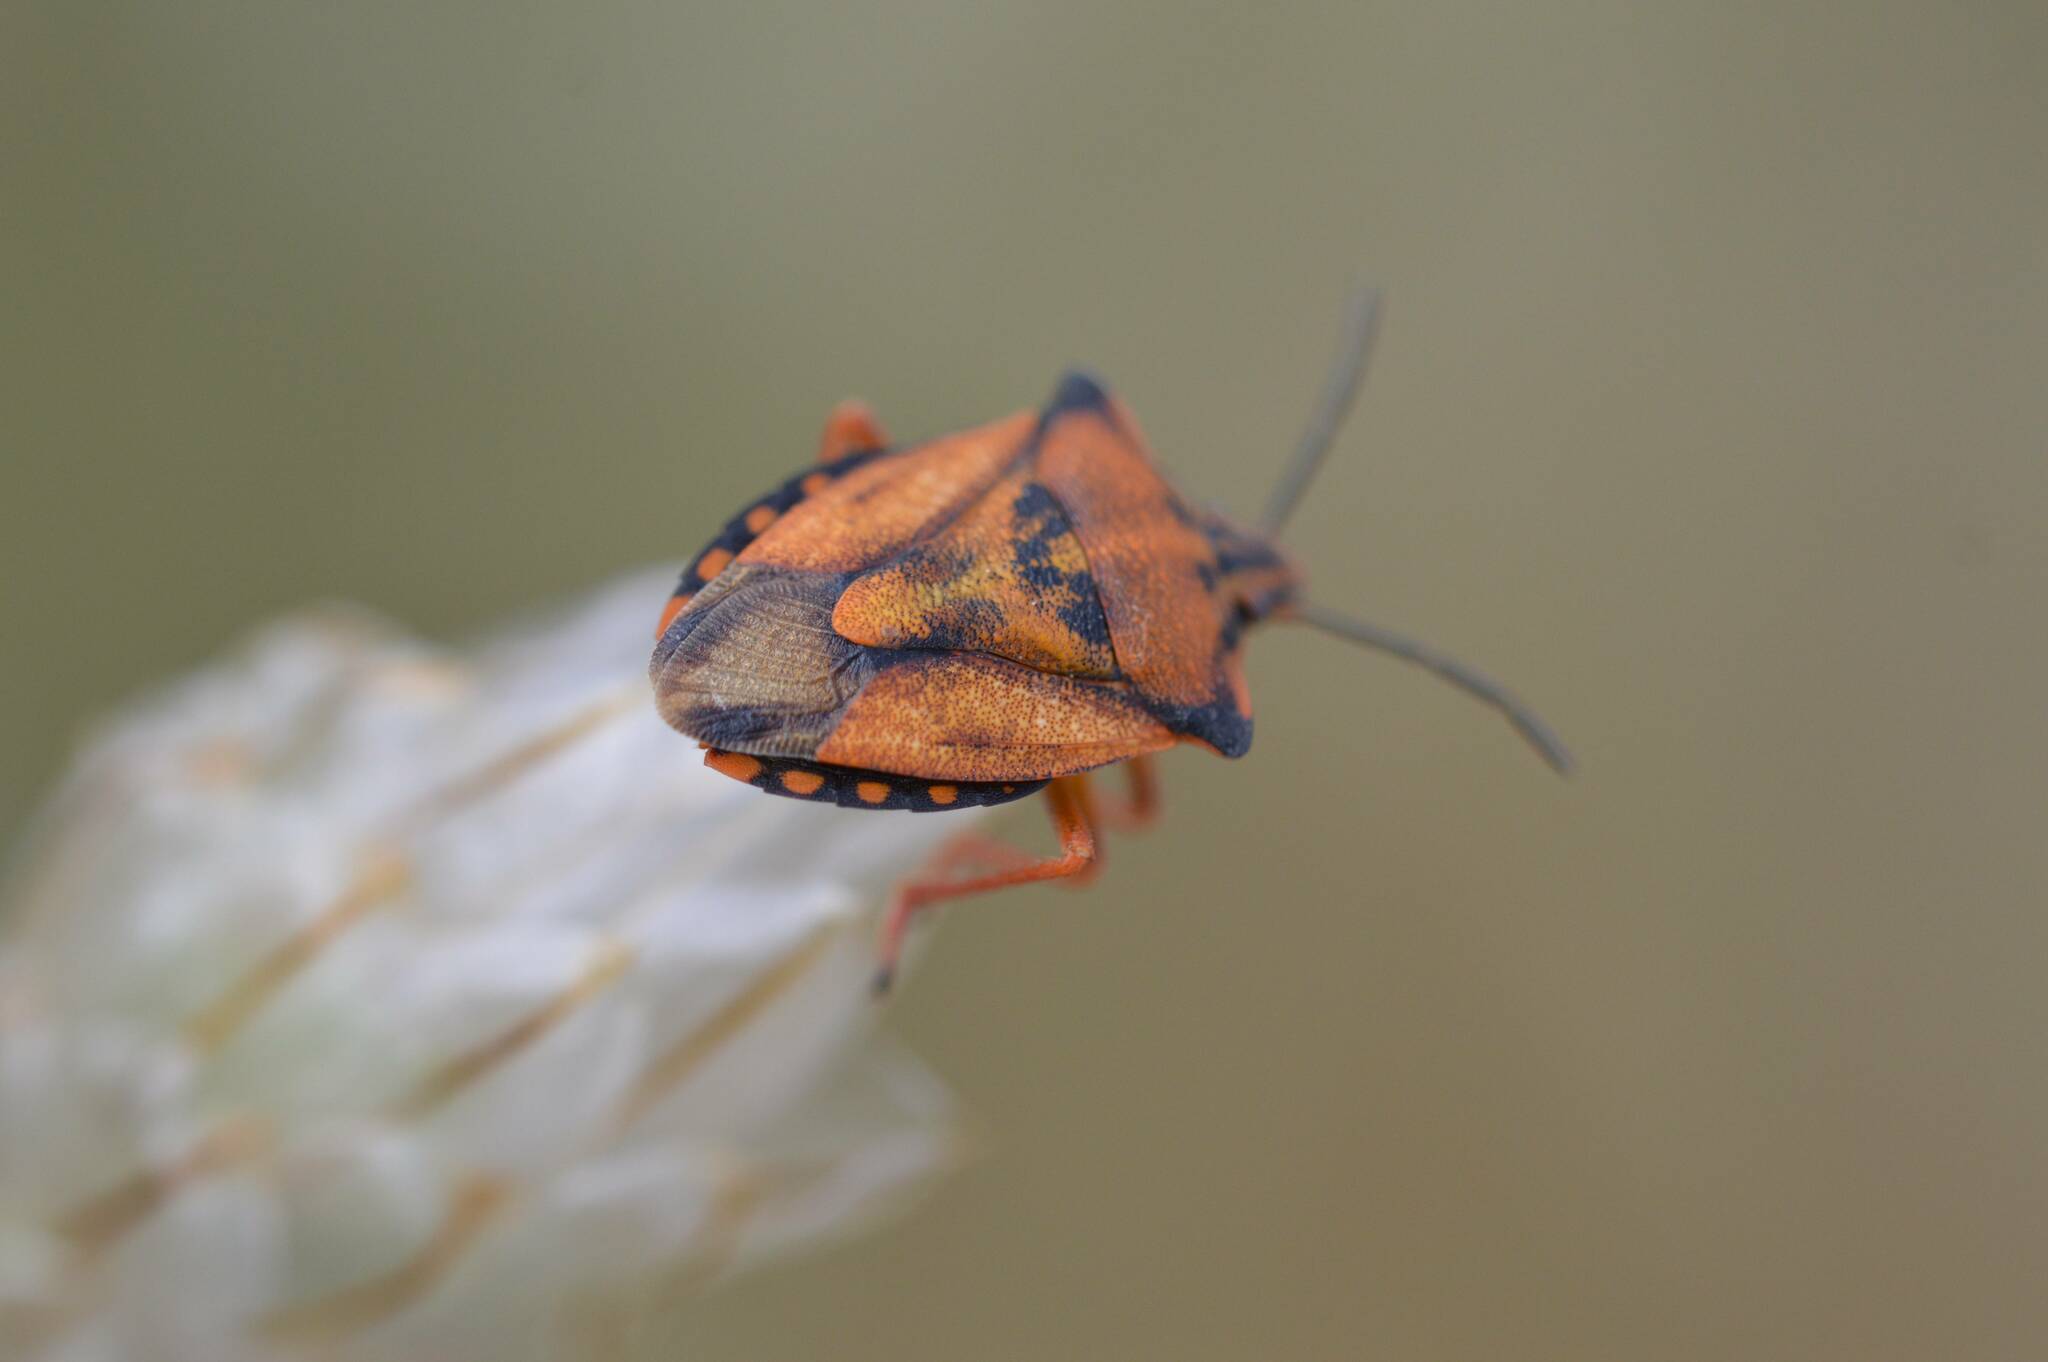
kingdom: Animalia
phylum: Arthropoda
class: Insecta
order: Hemiptera
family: Pentatomidae
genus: Carpocoris
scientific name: Carpocoris mediterraneus
